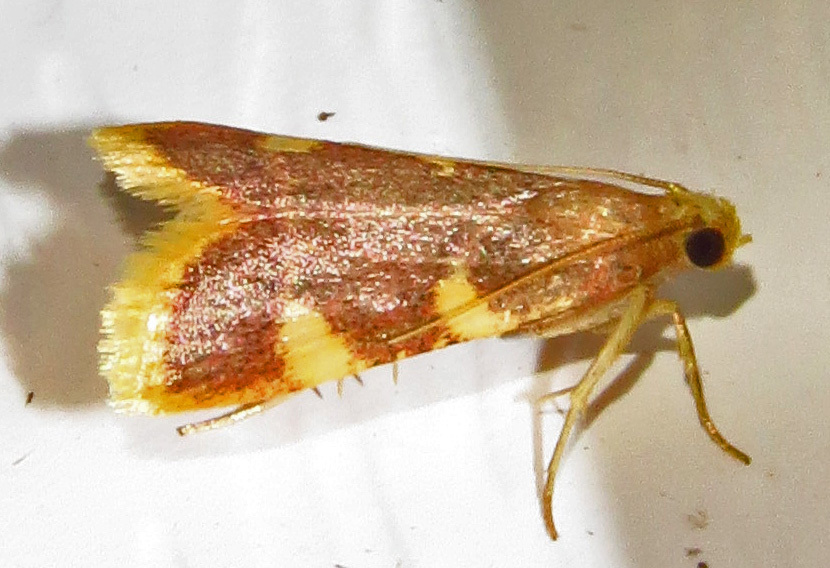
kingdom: Animalia
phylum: Arthropoda
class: Insecta
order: Lepidoptera
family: Pyralidae
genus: Hypsopygia
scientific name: Hypsopygia costalis
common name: Gold triangle
